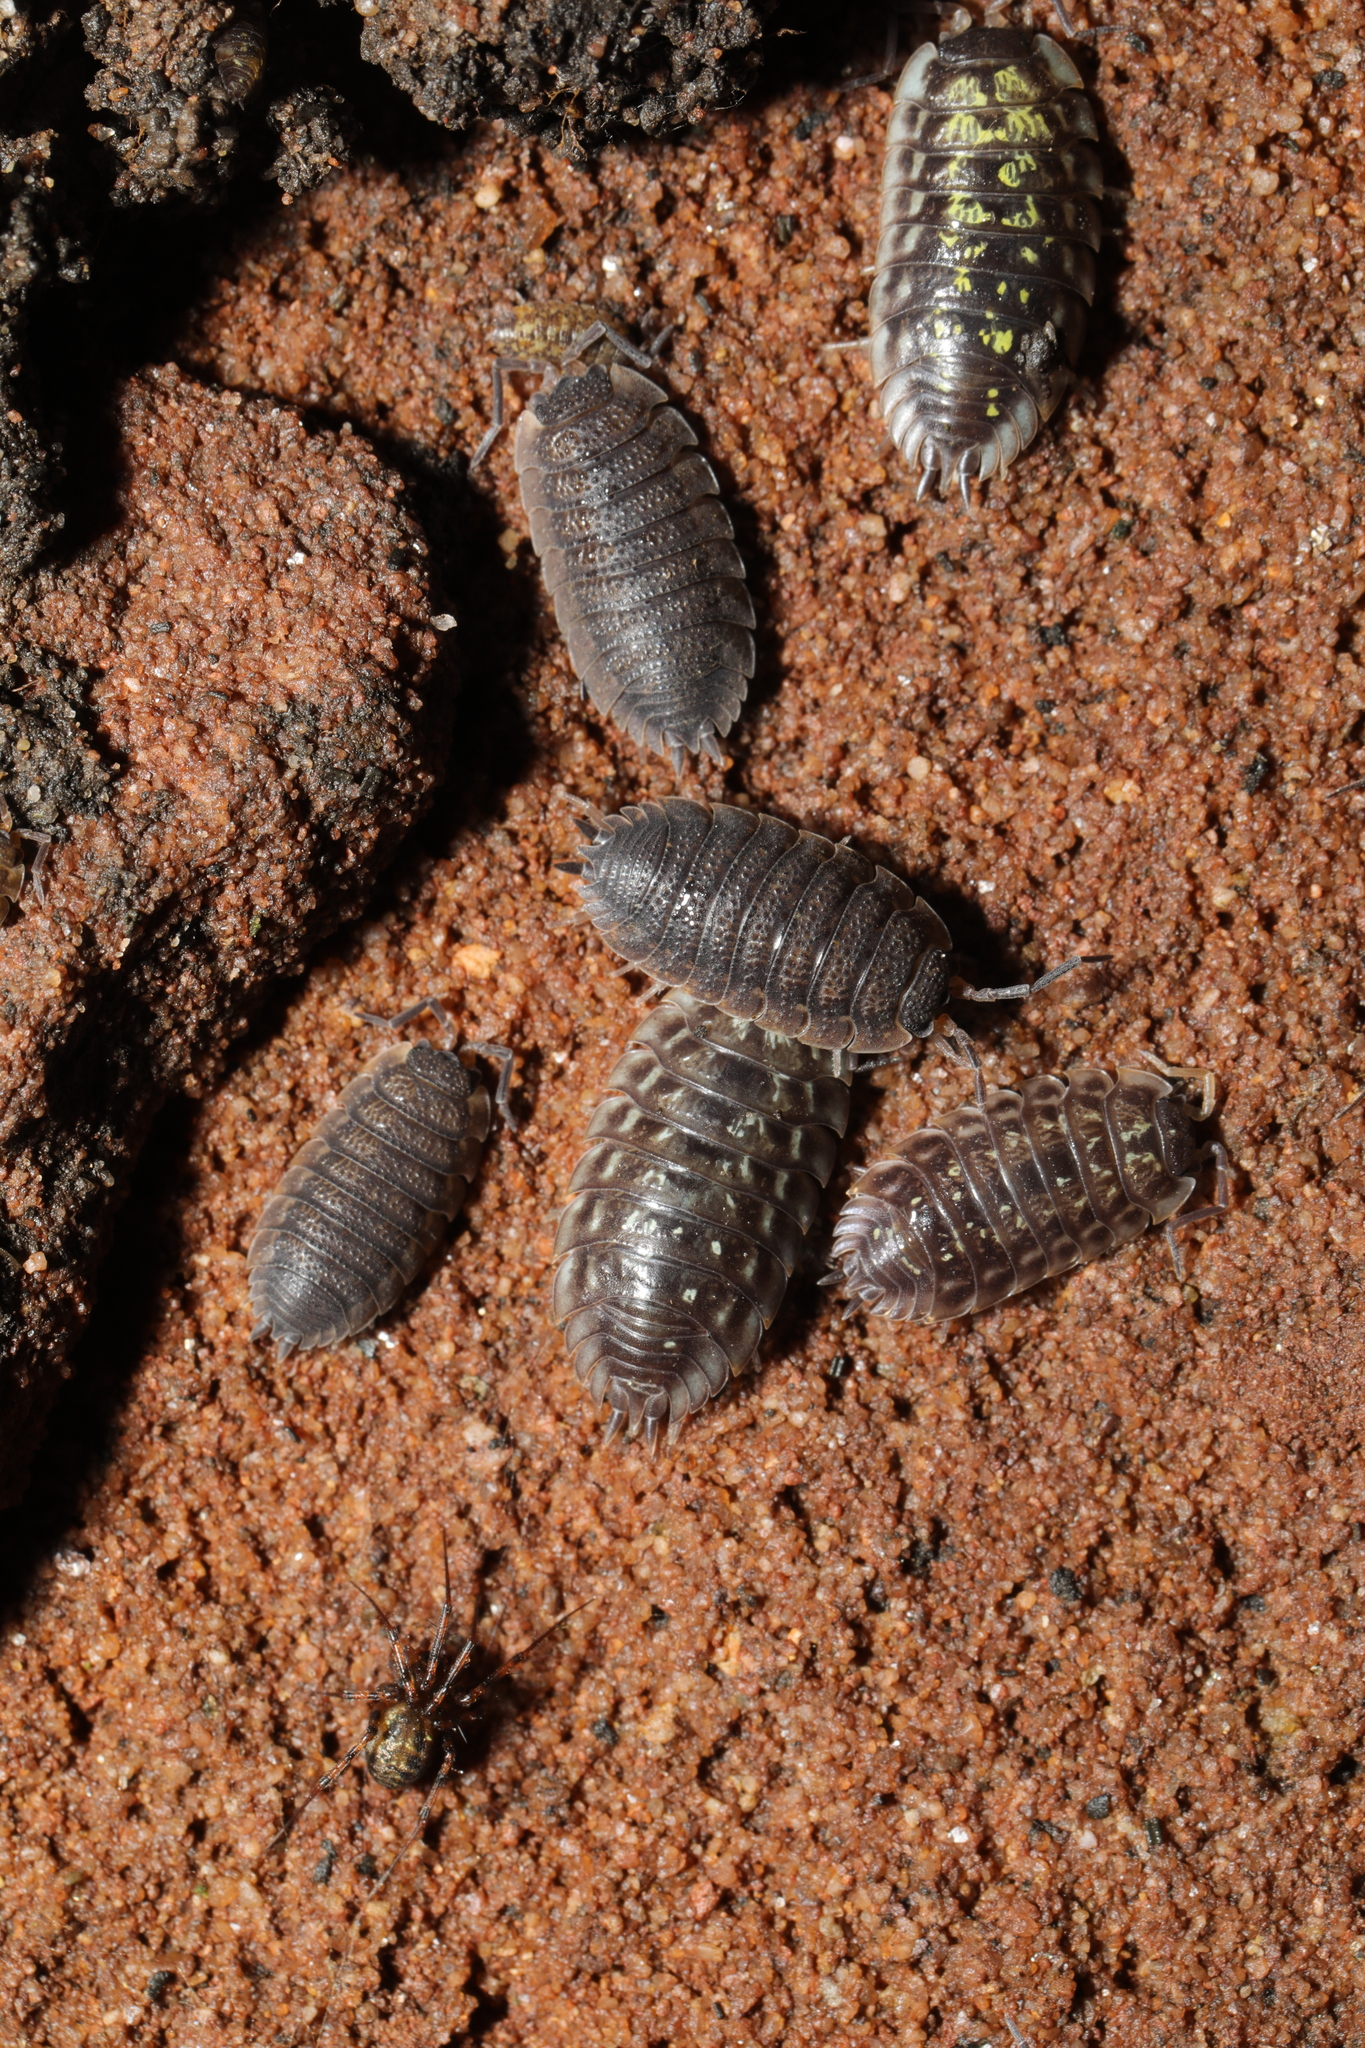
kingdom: Animalia
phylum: Arthropoda
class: Malacostraca
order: Isopoda
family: Porcellionidae
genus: Porcellio
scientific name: Porcellio scaber
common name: Common rough woodlouse
